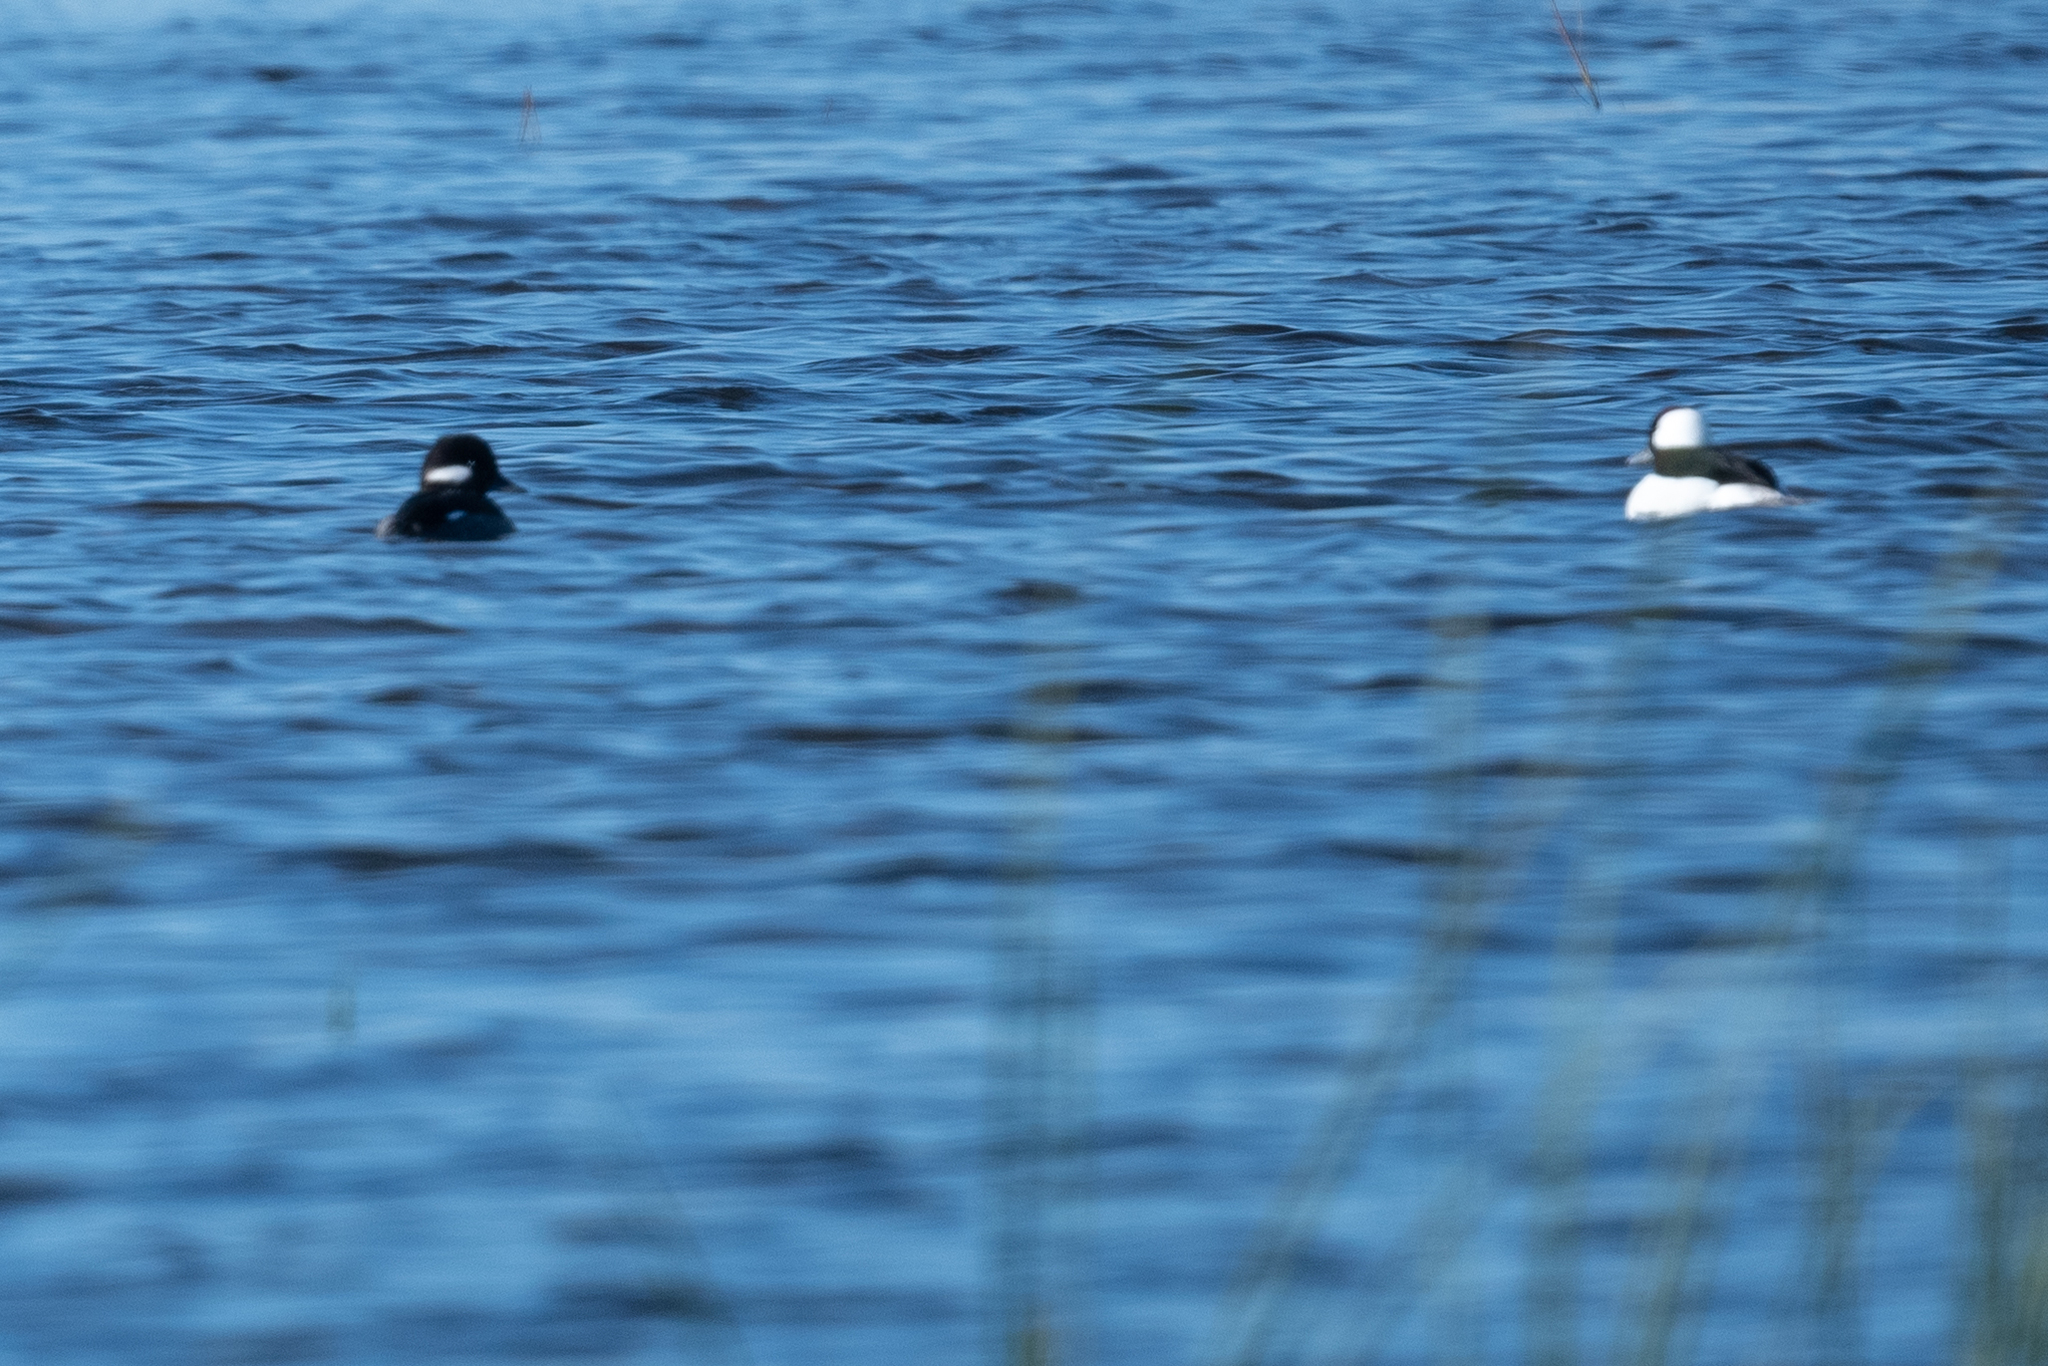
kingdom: Animalia
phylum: Chordata
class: Aves
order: Anseriformes
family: Anatidae
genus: Bucephala
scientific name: Bucephala albeola
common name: Bufflehead
